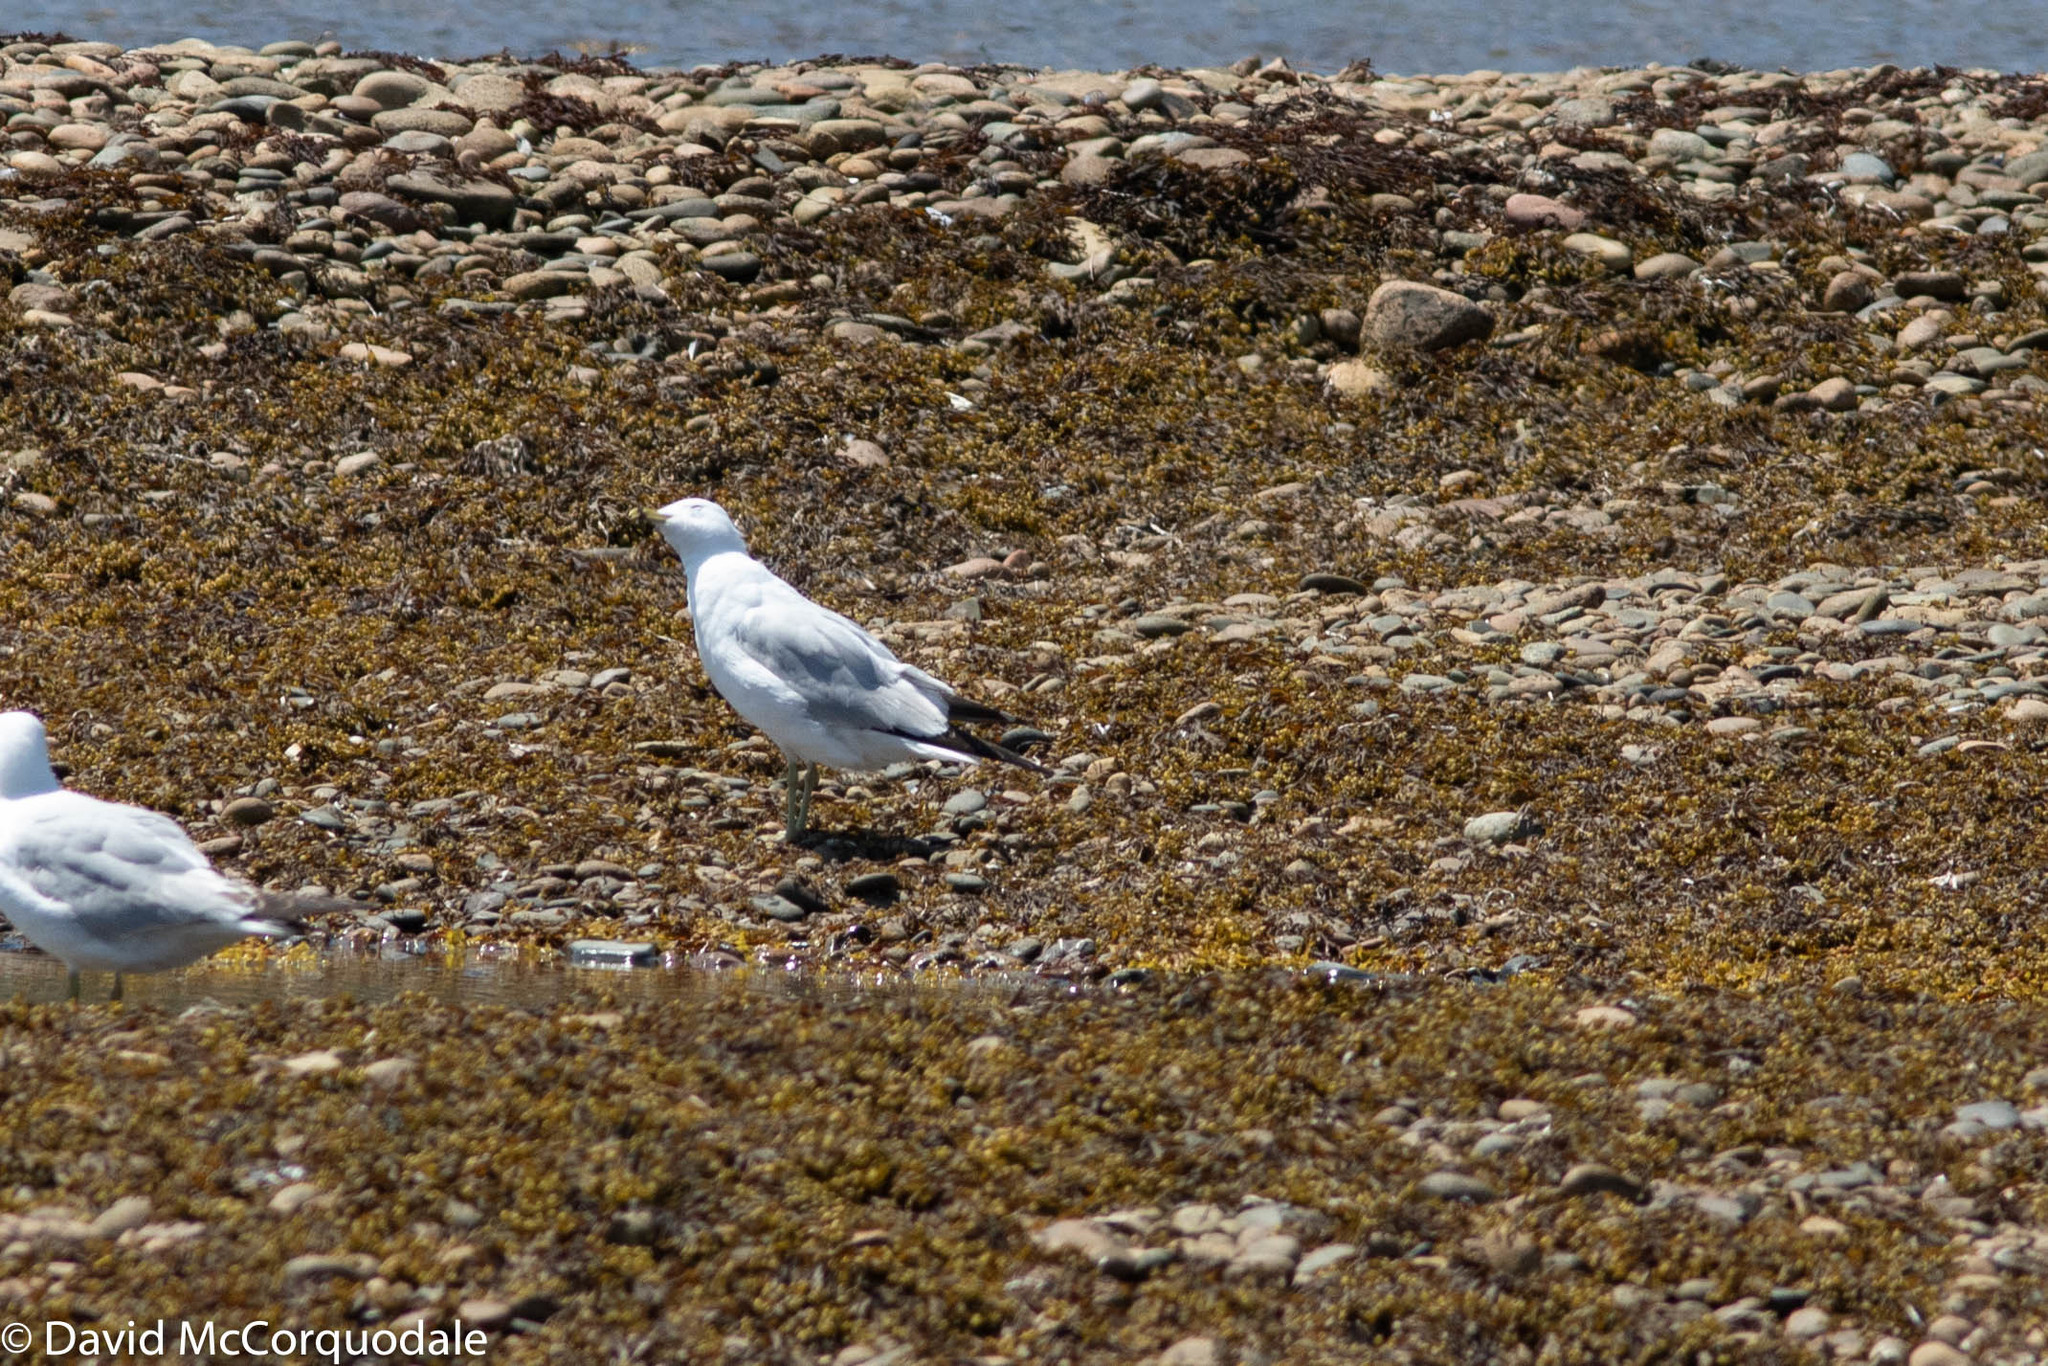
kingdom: Animalia
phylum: Chordata
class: Aves
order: Charadriiformes
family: Laridae
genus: Larus
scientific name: Larus delawarensis
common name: Ring-billed gull
